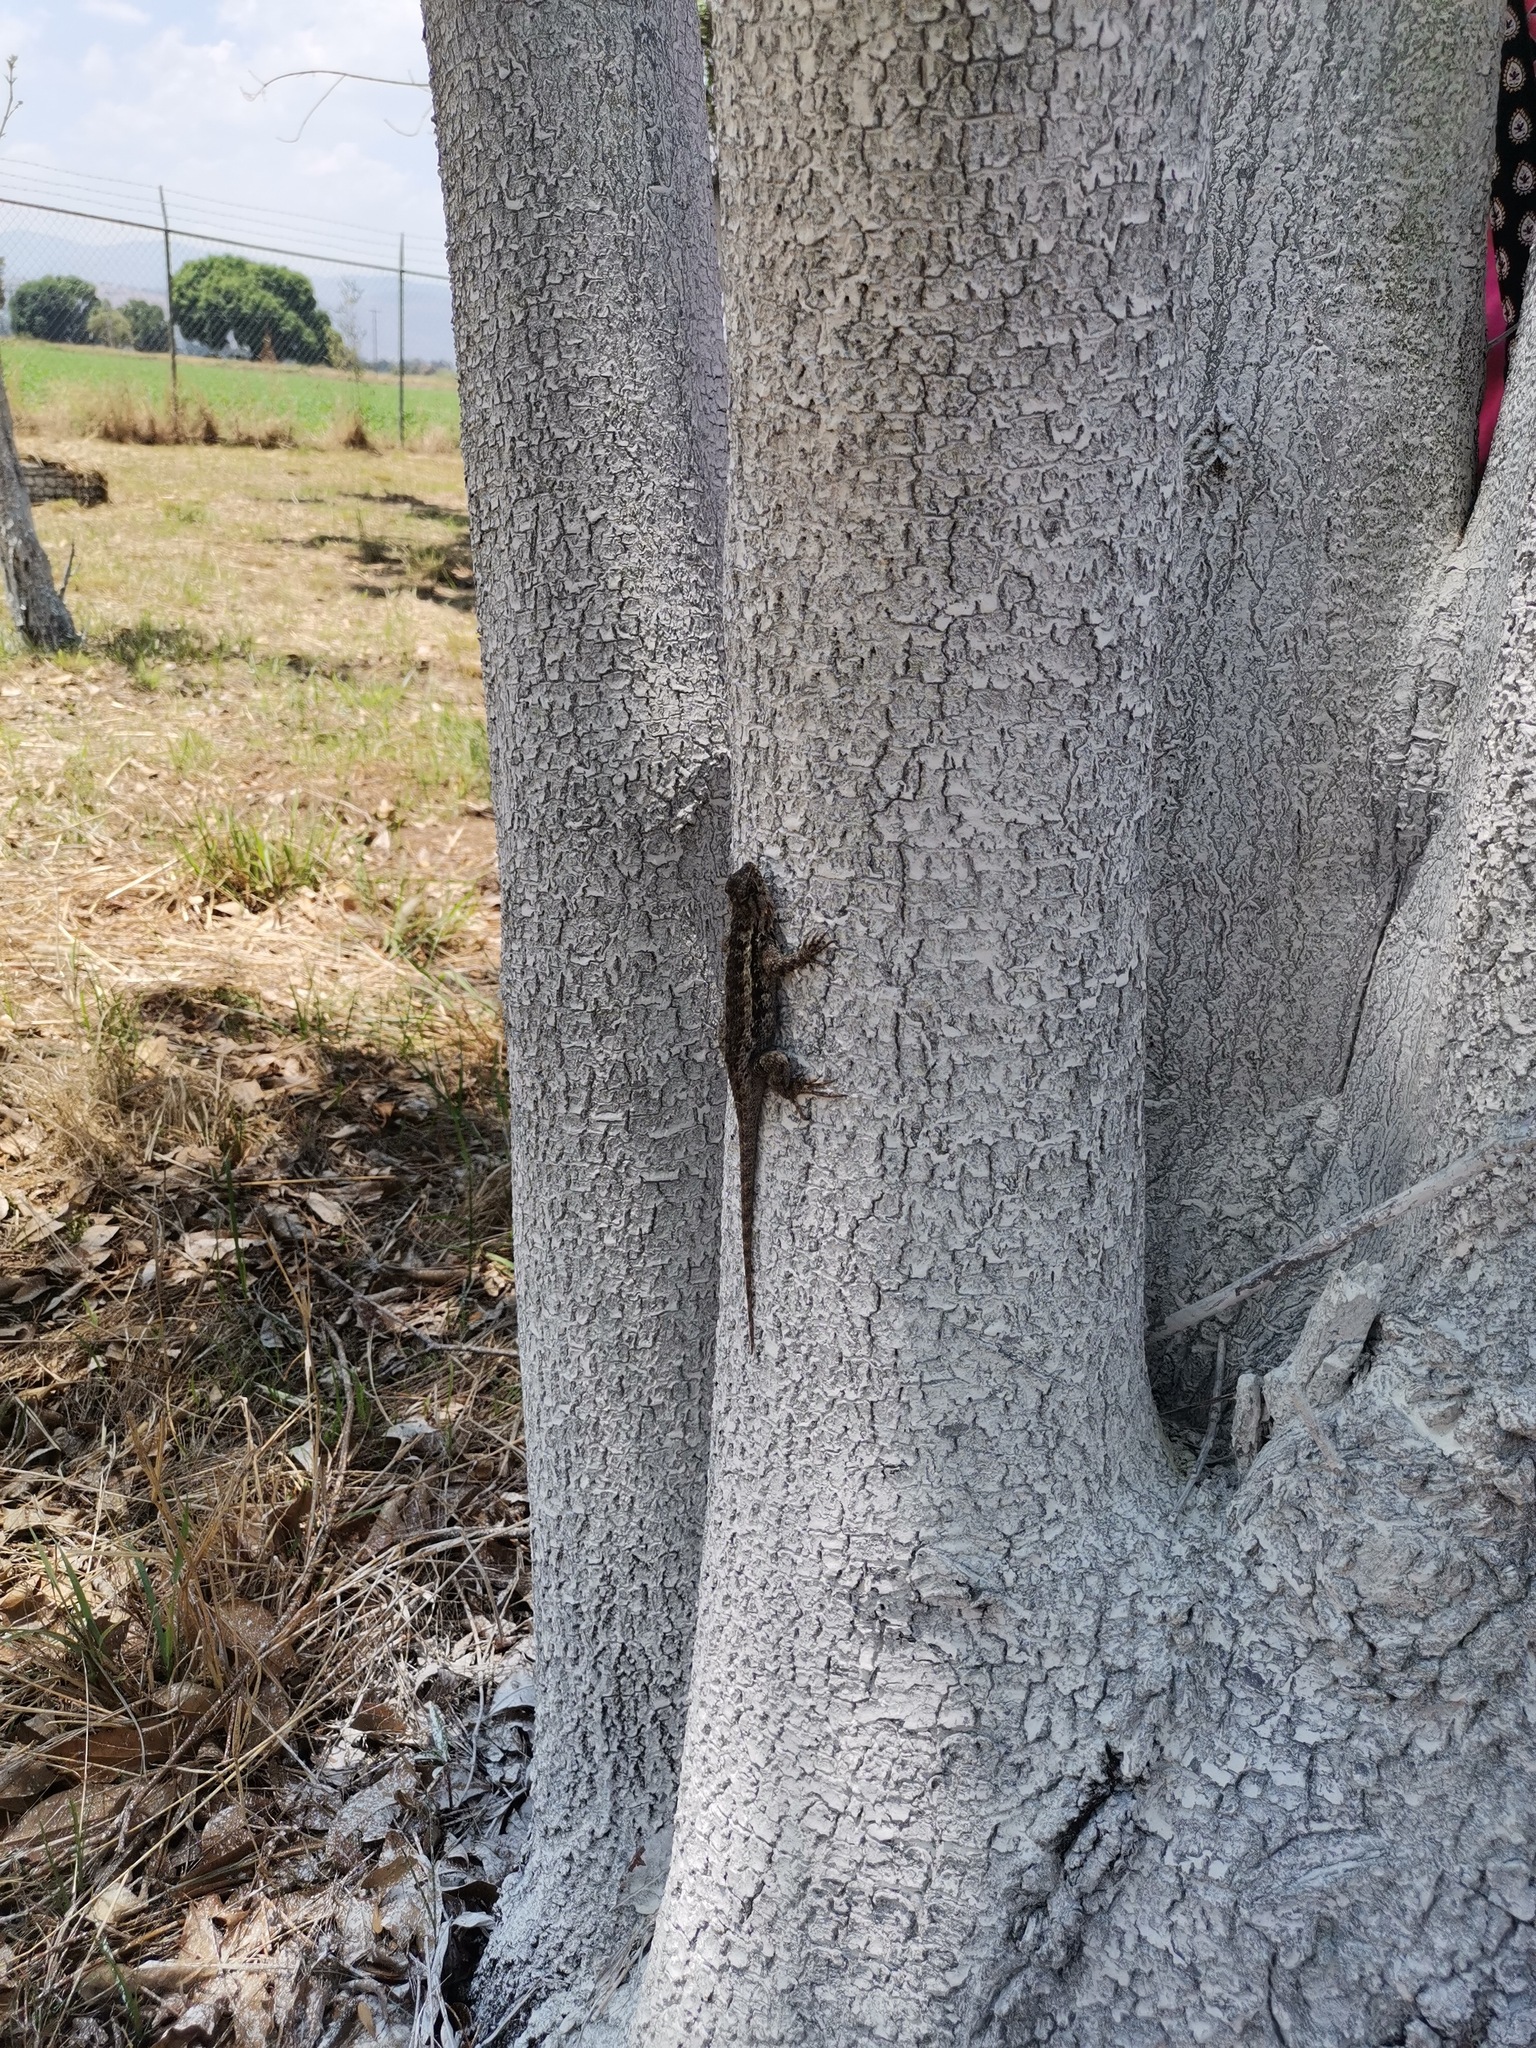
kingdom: Animalia
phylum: Chordata
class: Squamata
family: Phrynosomatidae
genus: Sceloporus
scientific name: Sceloporus spinosus
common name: Blue-spotted spiny lizard [caeruleopunctatus]
